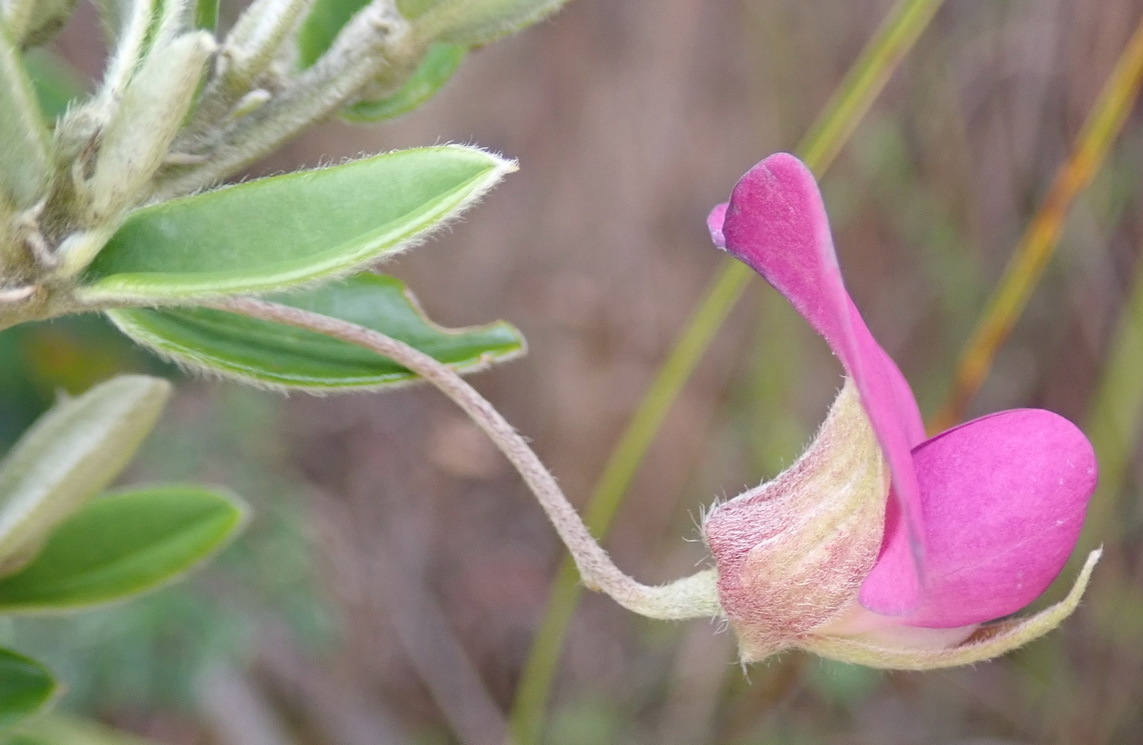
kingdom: Plantae
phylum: Tracheophyta
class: Magnoliopsida
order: Fabales
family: Fabaceae
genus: Podalyria
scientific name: Podalyria buxifolia
